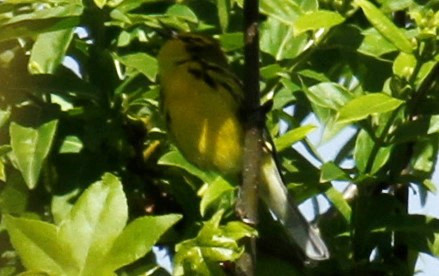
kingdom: Animalia
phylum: Chordata
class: Aves
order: Passeriformes
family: Parulidae
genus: Setophaga
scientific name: Setophaga discolor
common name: Prairie warbler
